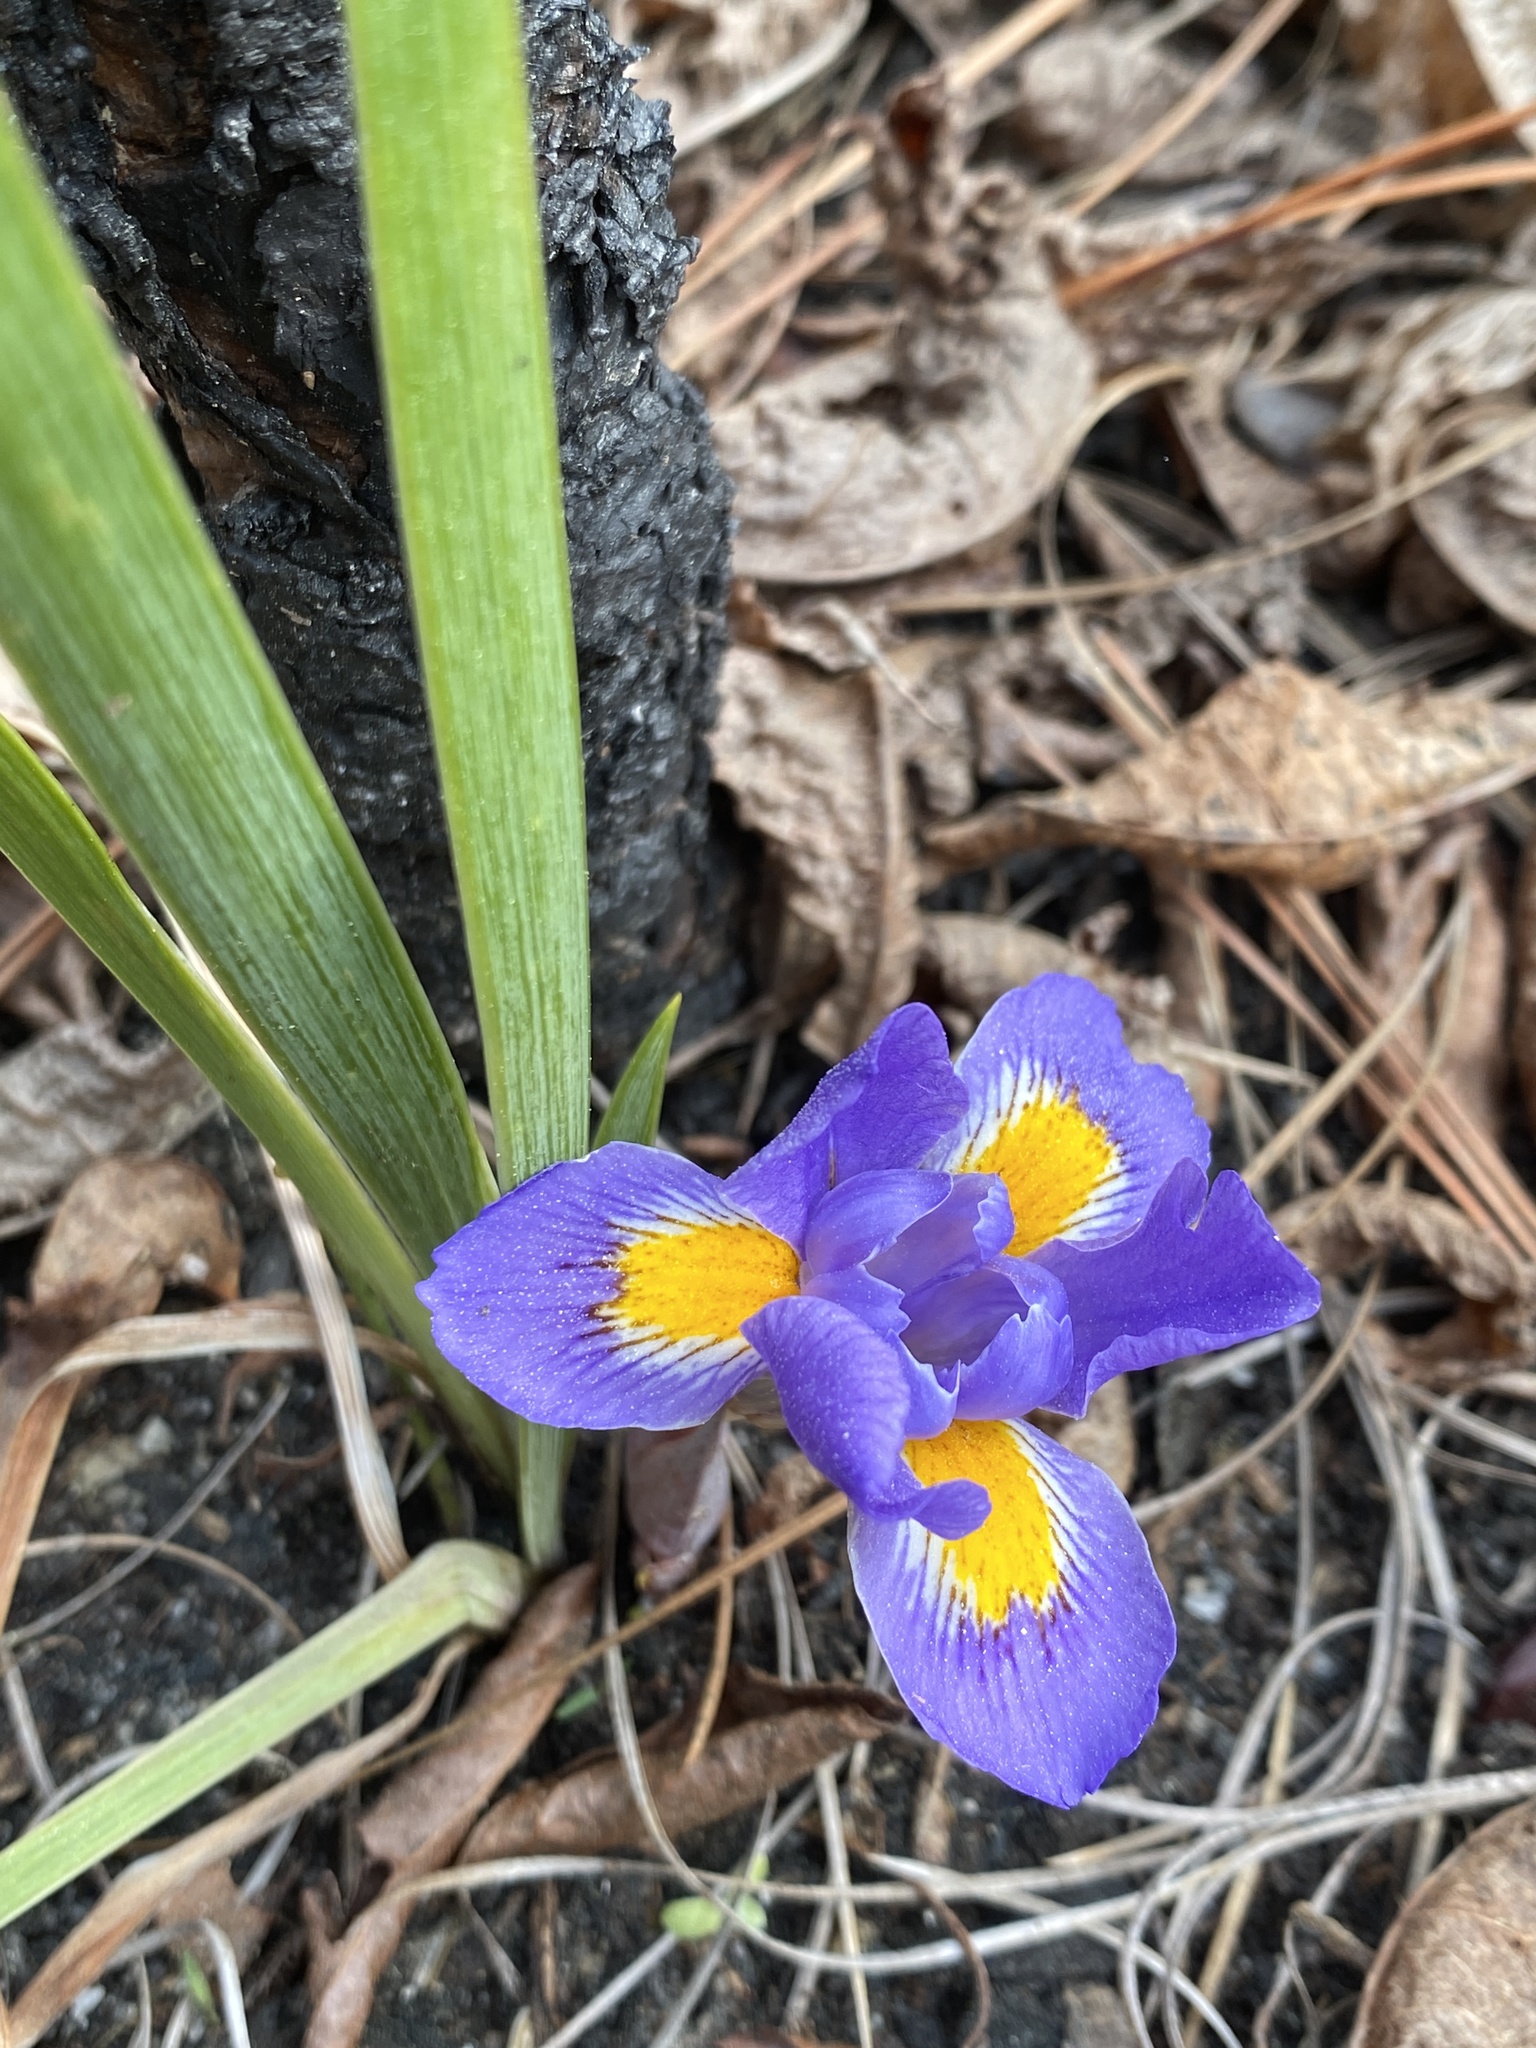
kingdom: Plantae
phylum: Tracheophyta
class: Liliopsida
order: Asparagales
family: Iridaceae
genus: Iris
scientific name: Iris verna
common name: Dwarf iris
